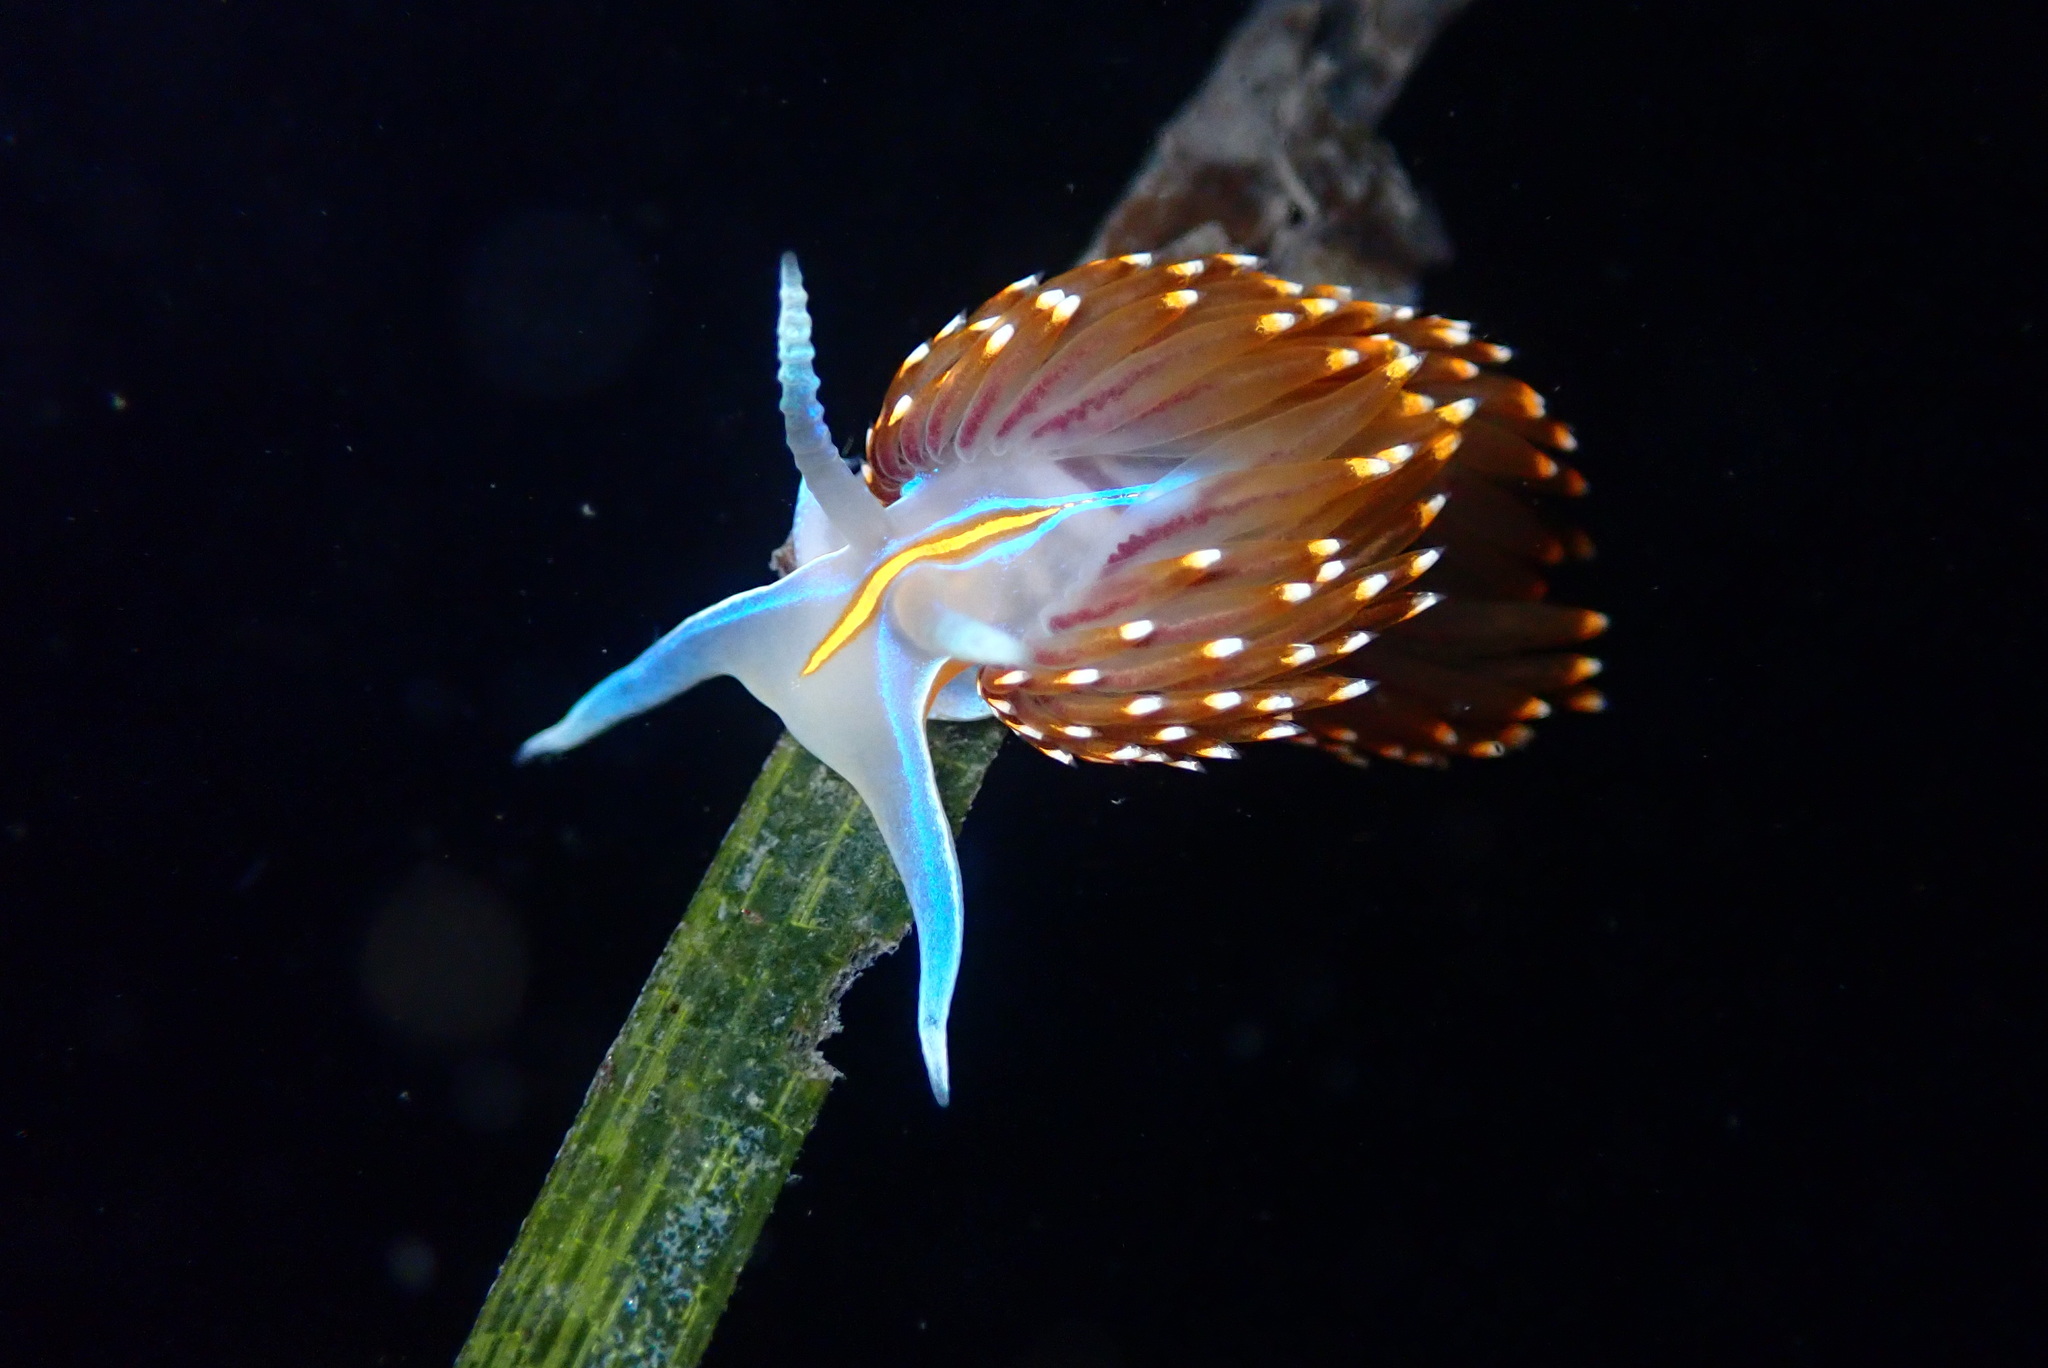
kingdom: Animalia
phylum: Mollusca
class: Gastropoda
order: Nudibranchia
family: Myrrhinidae
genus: Hermissenda
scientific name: Hermissenda opalescens
